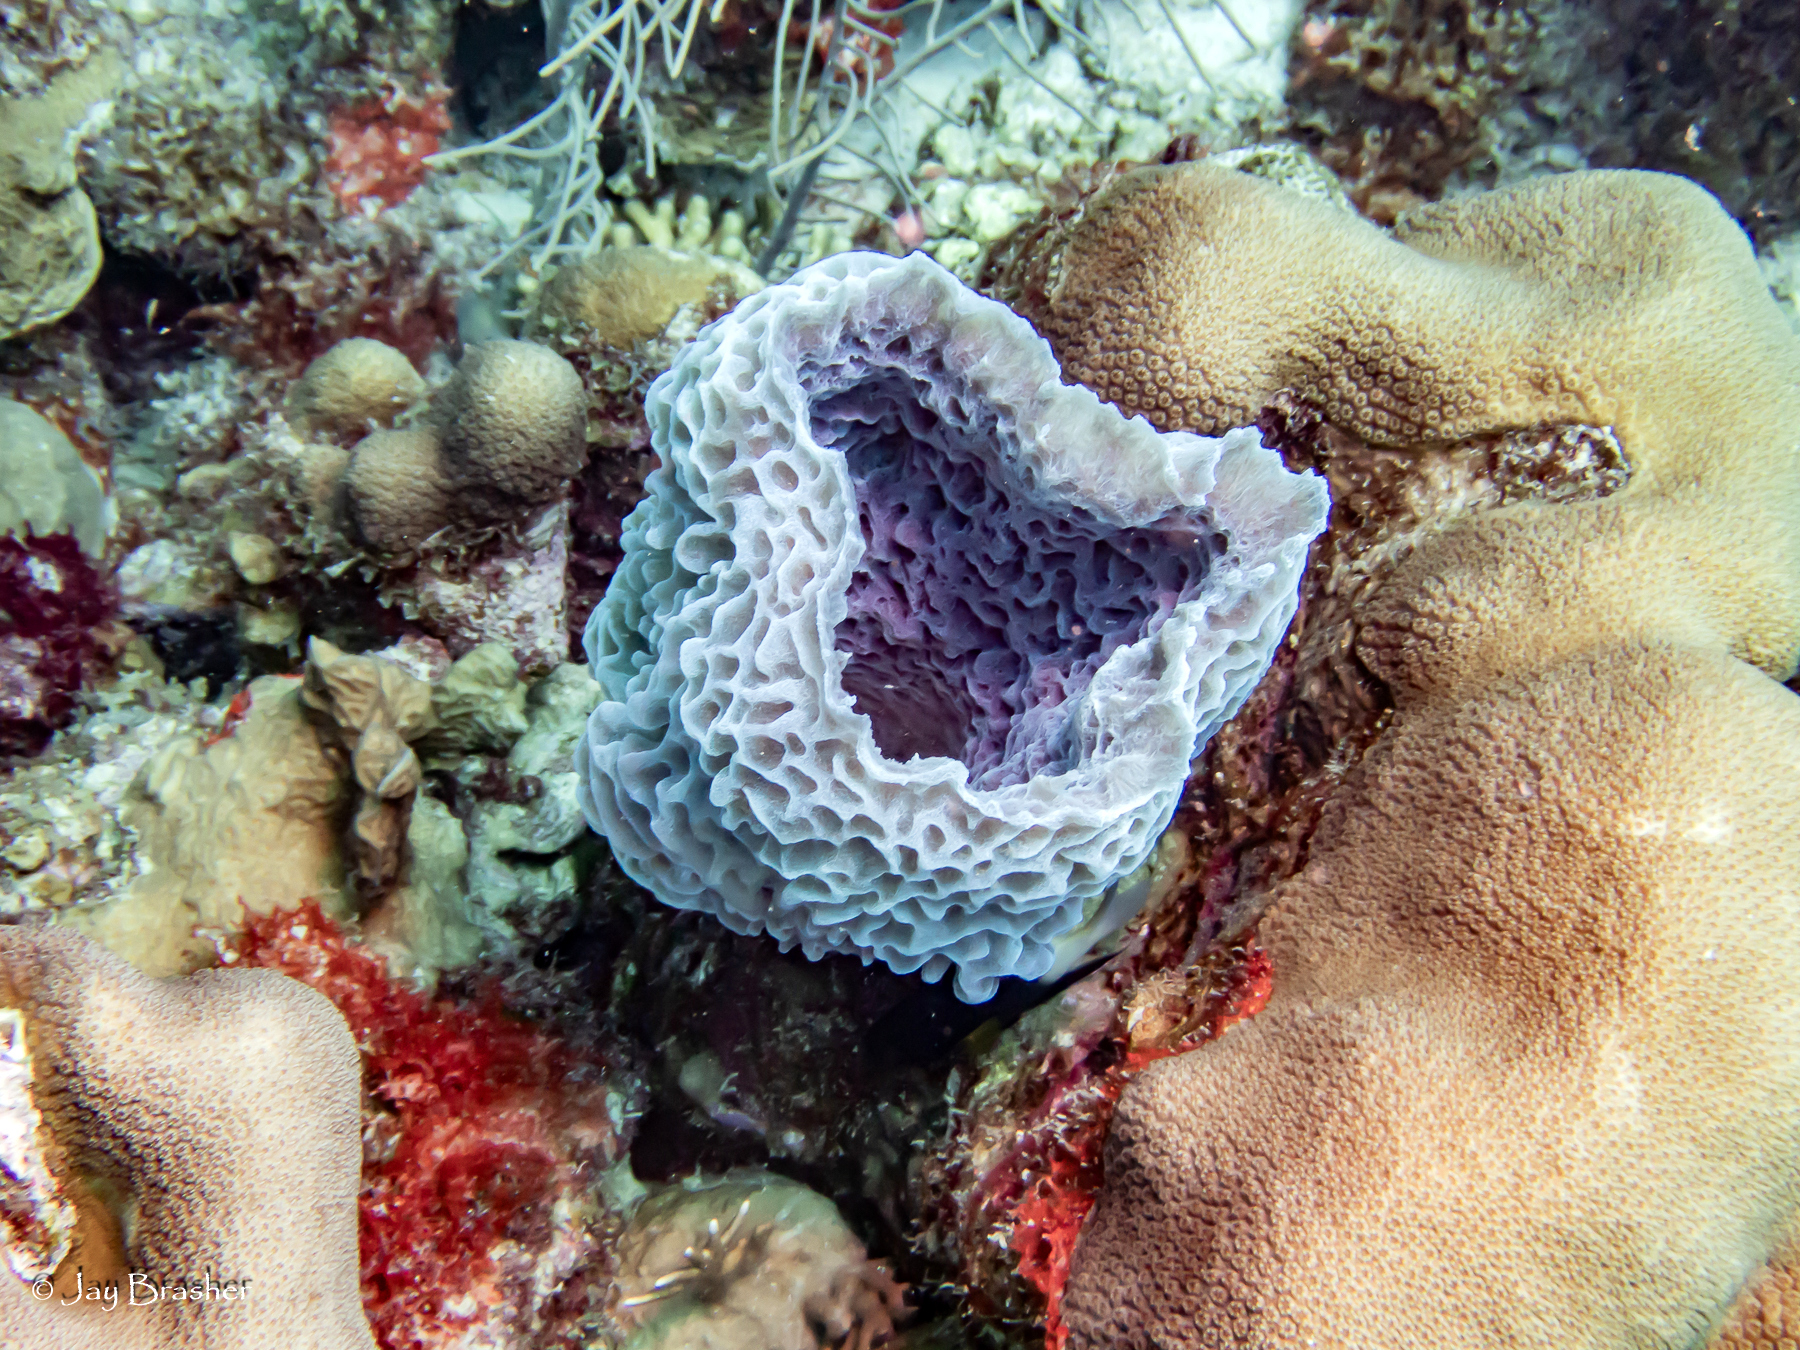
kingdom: Animalia
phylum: Porifera
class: Demospongiae
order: Haplosclerida
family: Callyspongiidae
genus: Callyspongia
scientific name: Callyspongia plicifera
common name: Azure vase sponge
